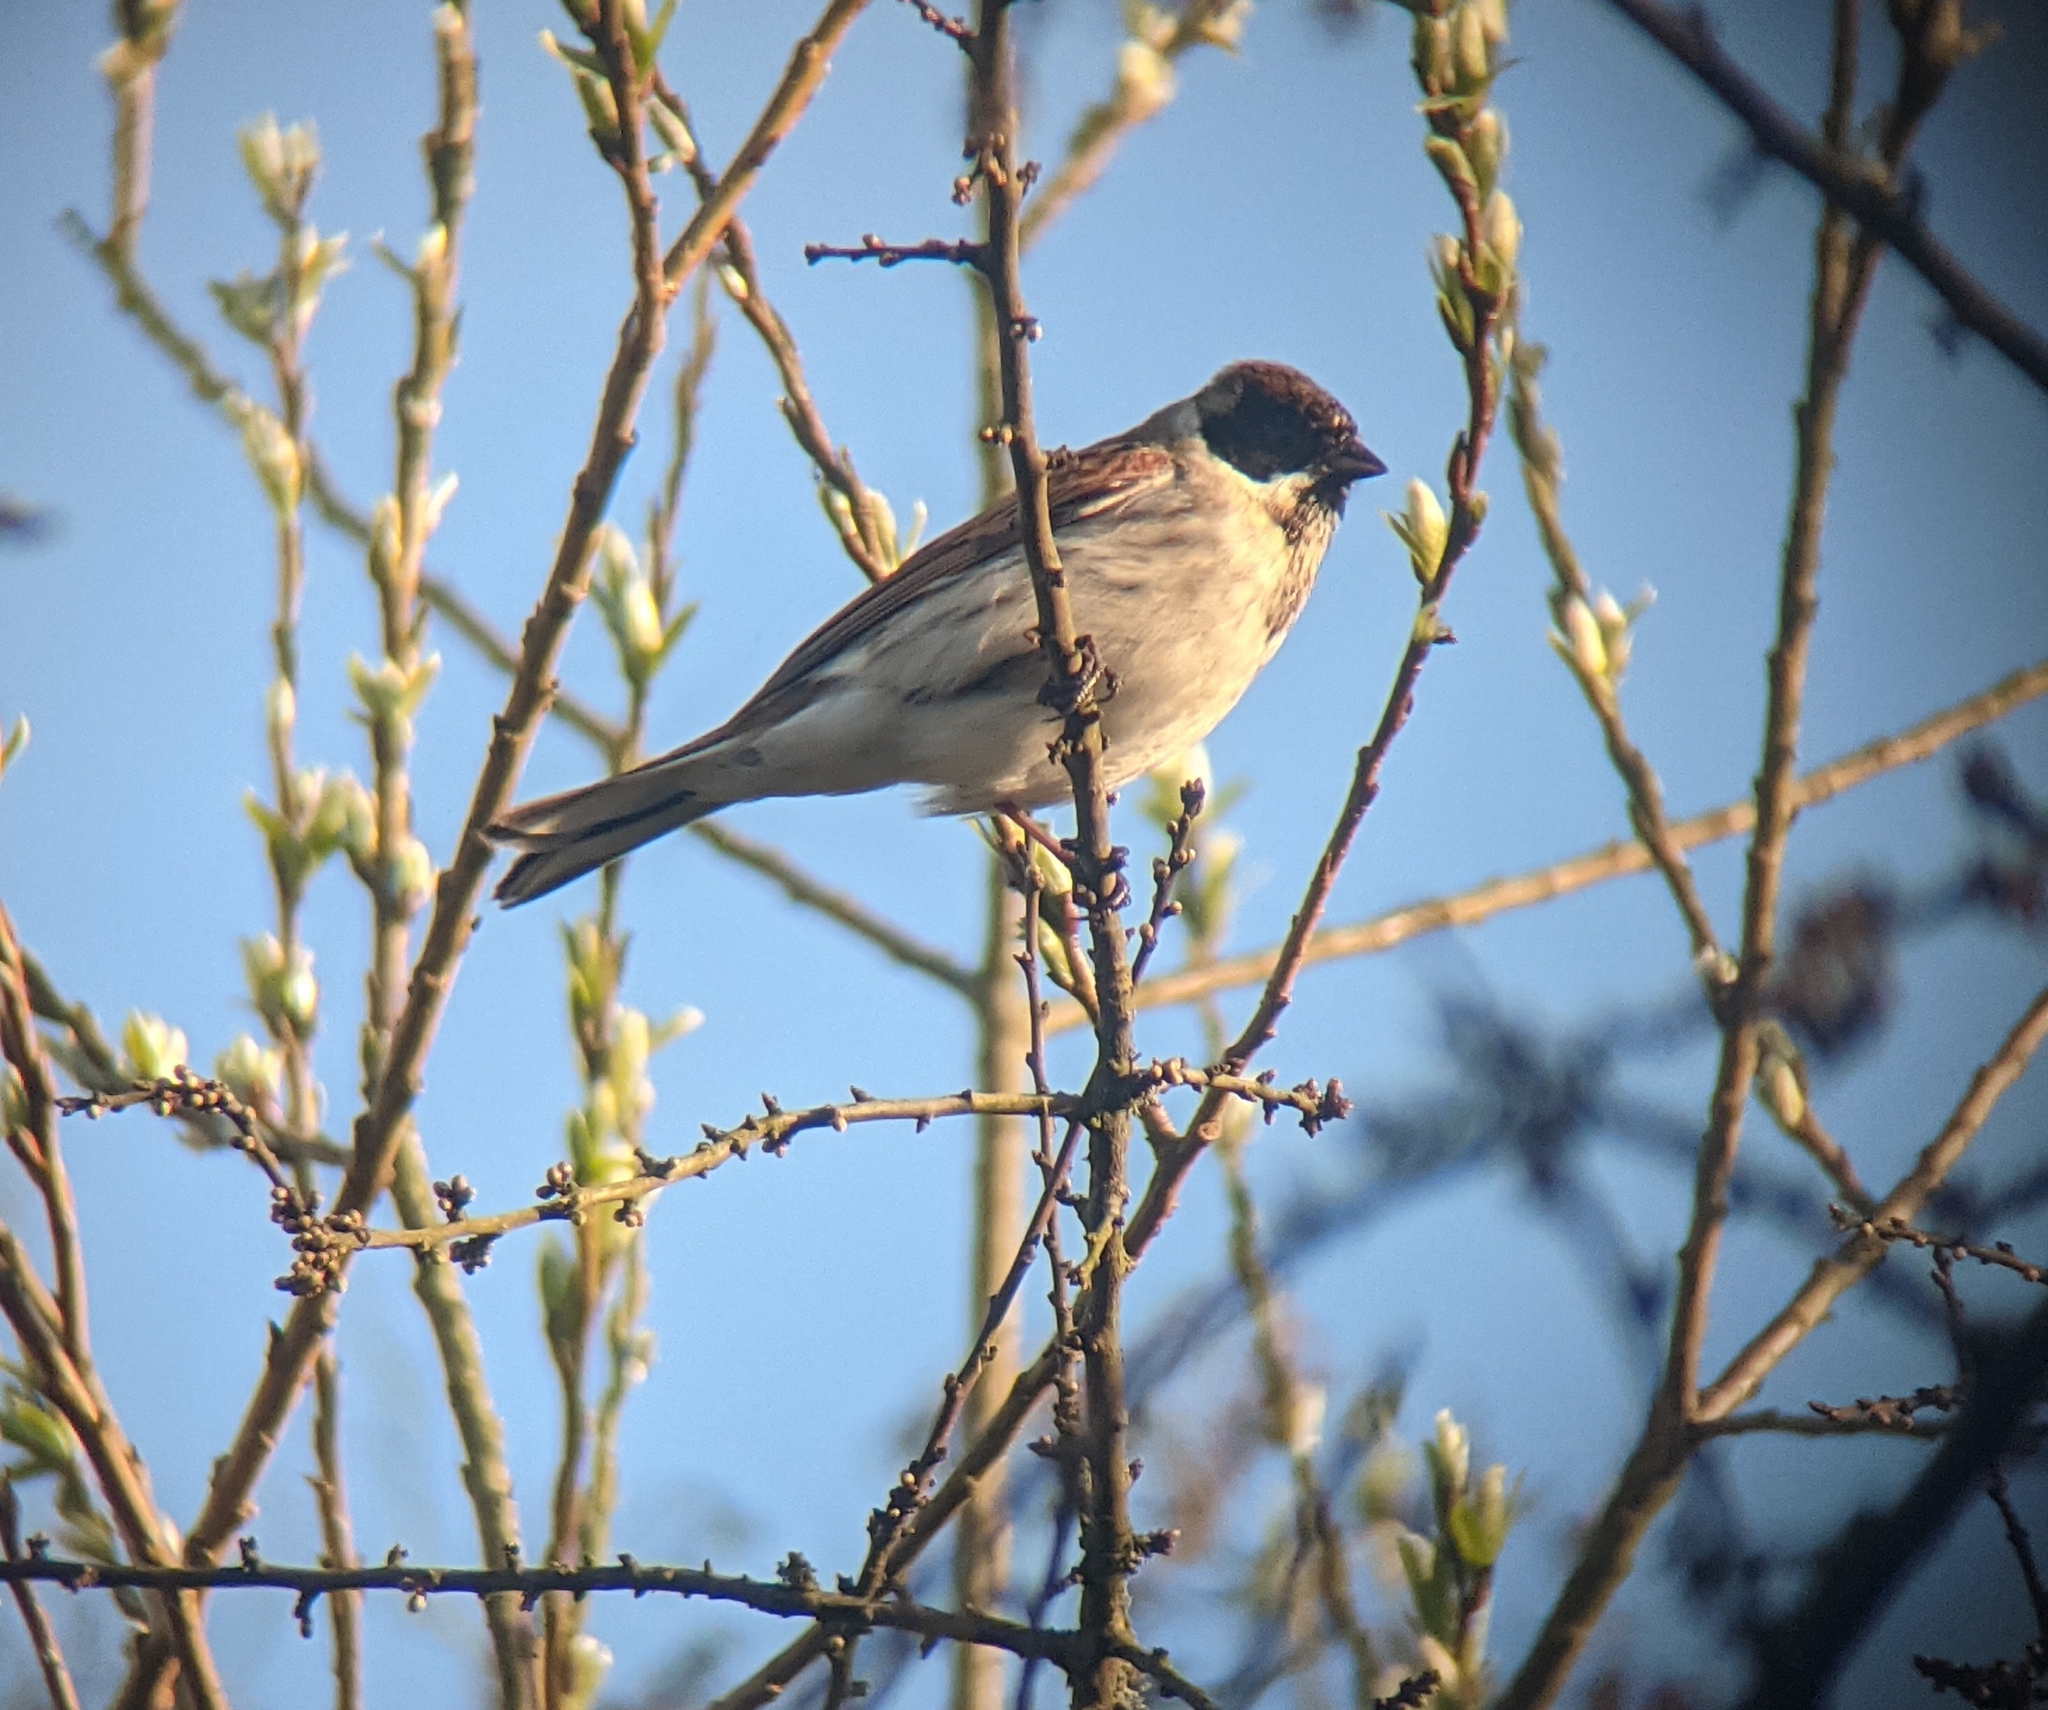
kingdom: Animalia
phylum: Chordata
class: Aves
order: Passeriformes
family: Emberizidae
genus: Emberiza
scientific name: Emberiza schoeniclus
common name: Reed bunting
